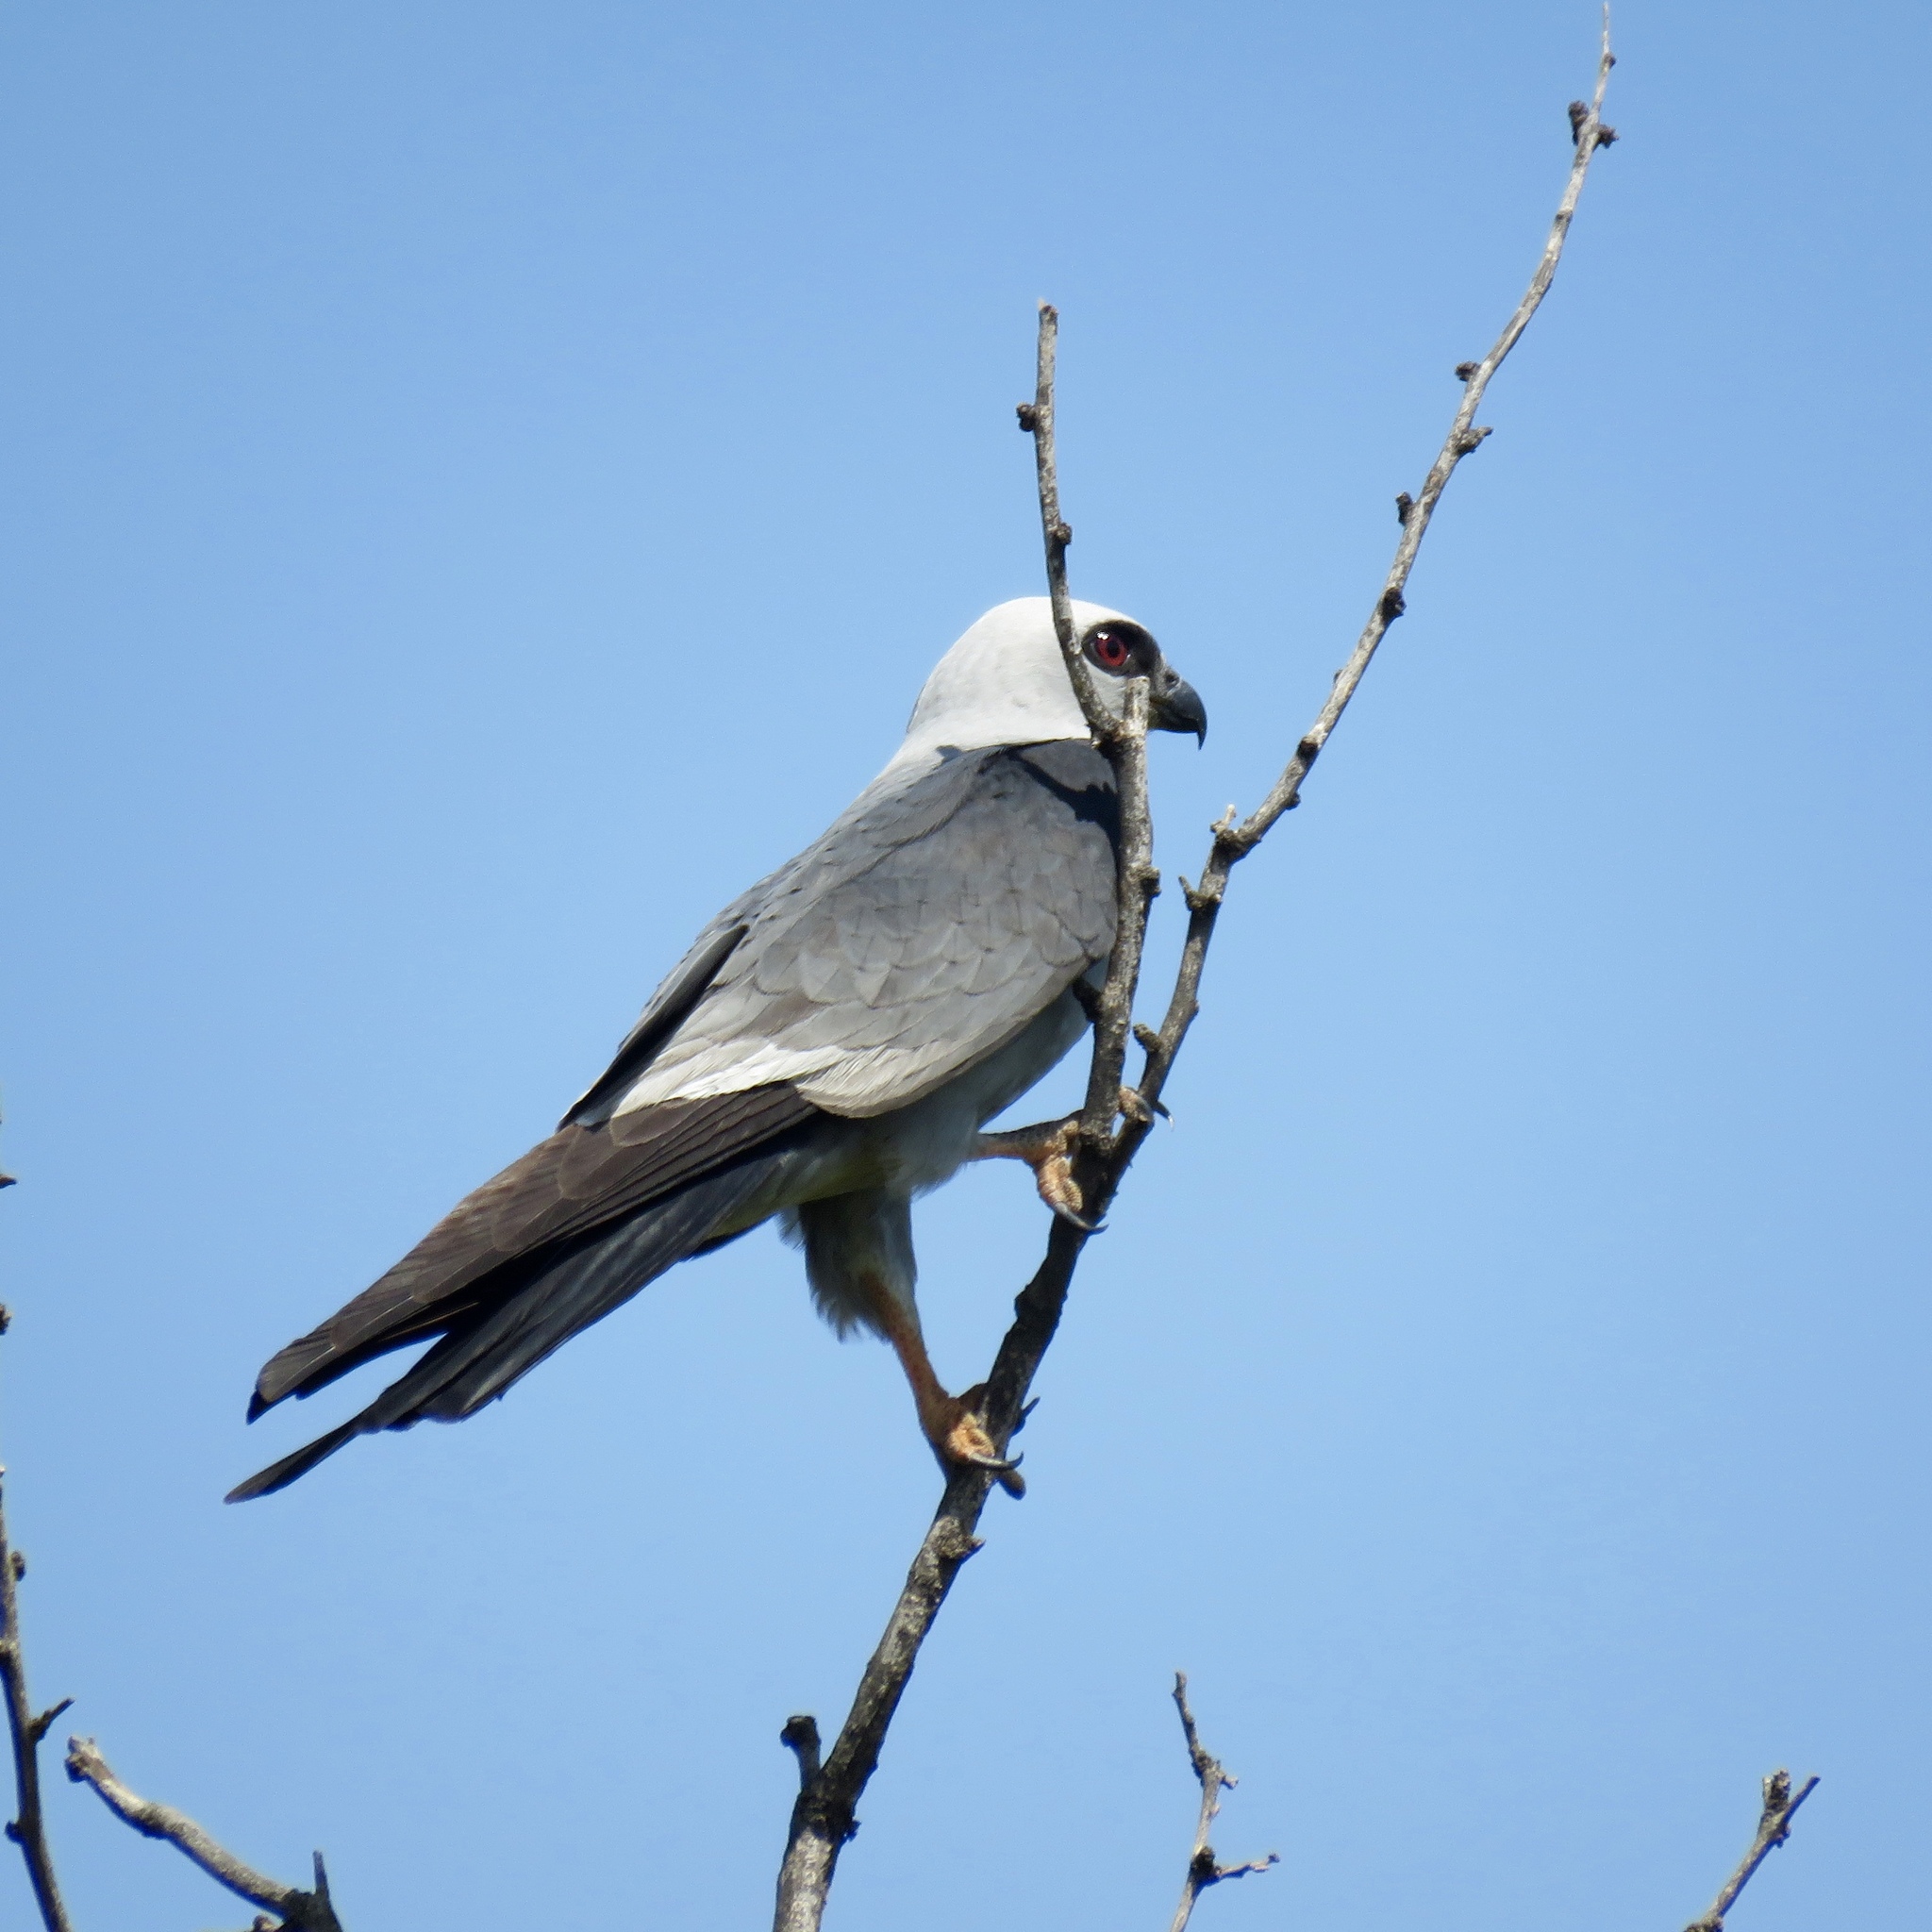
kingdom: Animalia
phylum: Chordata
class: Aves
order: Accipitriformes
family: Accipitridae
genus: Ictinia
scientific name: Ictinia mississippiensis
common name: Mississippi kite
